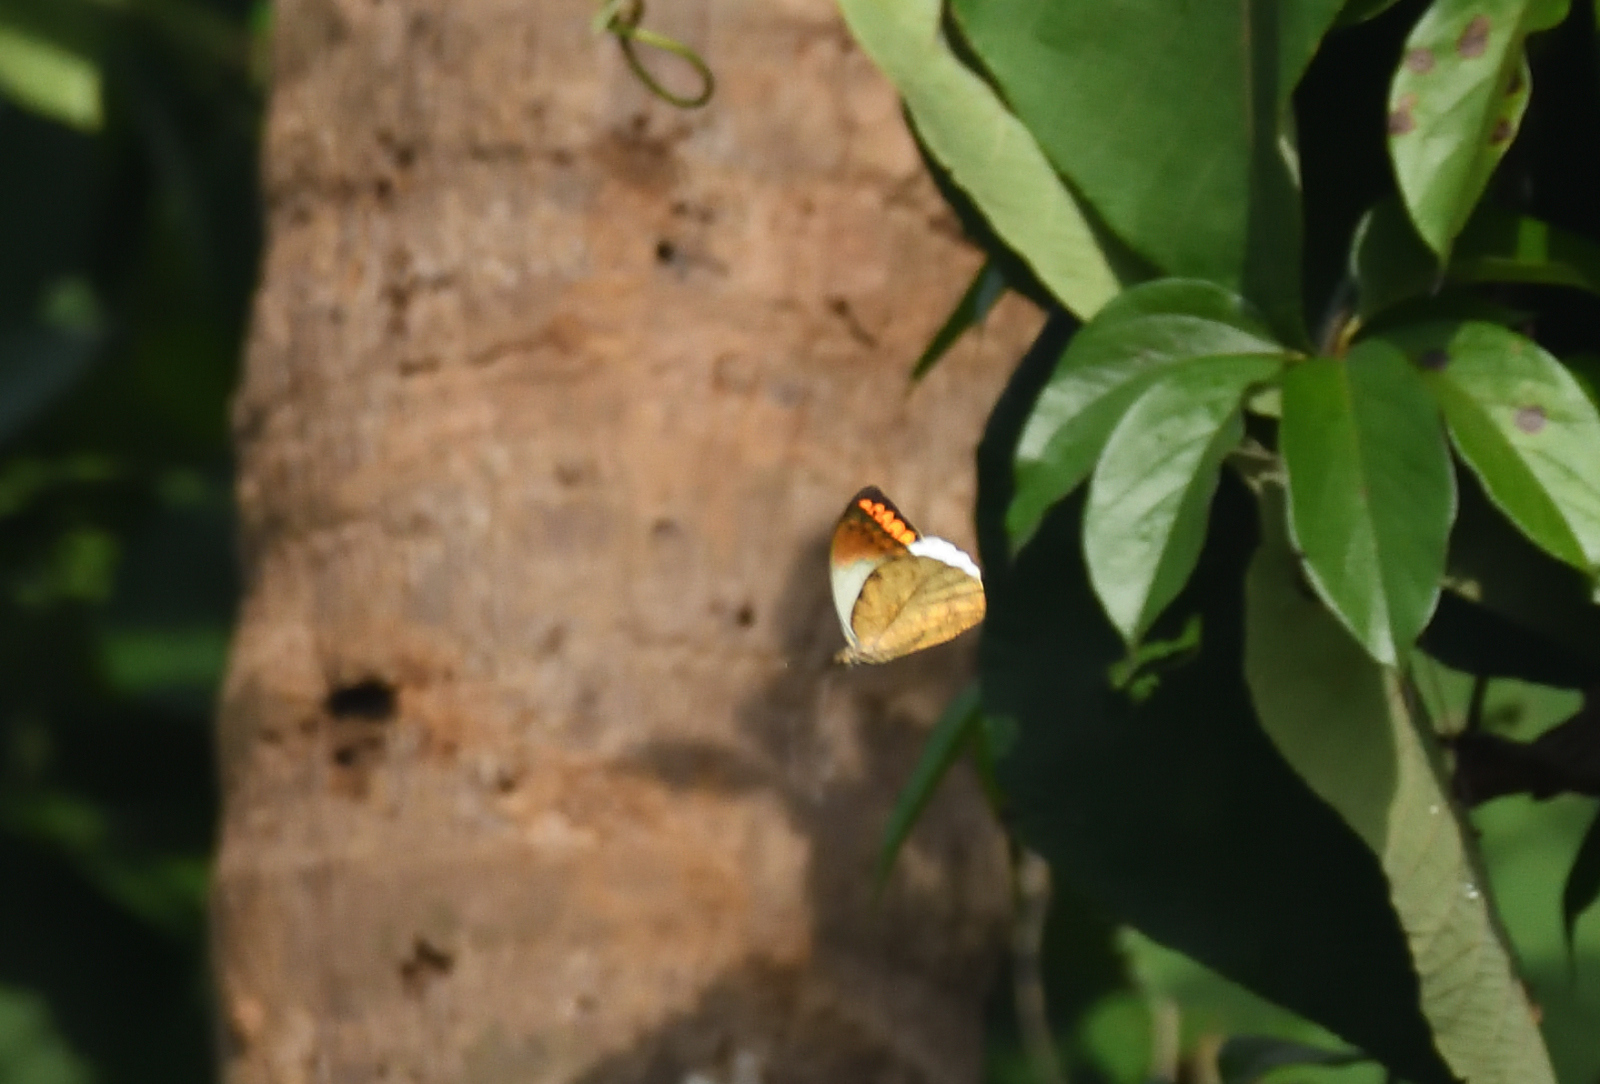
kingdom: Animalia
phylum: Arthropoda
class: Insecta
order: Lepidoptera
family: Pieridae
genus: Hebomoia
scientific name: Hebomoia glaucippe
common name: Great orange tip
